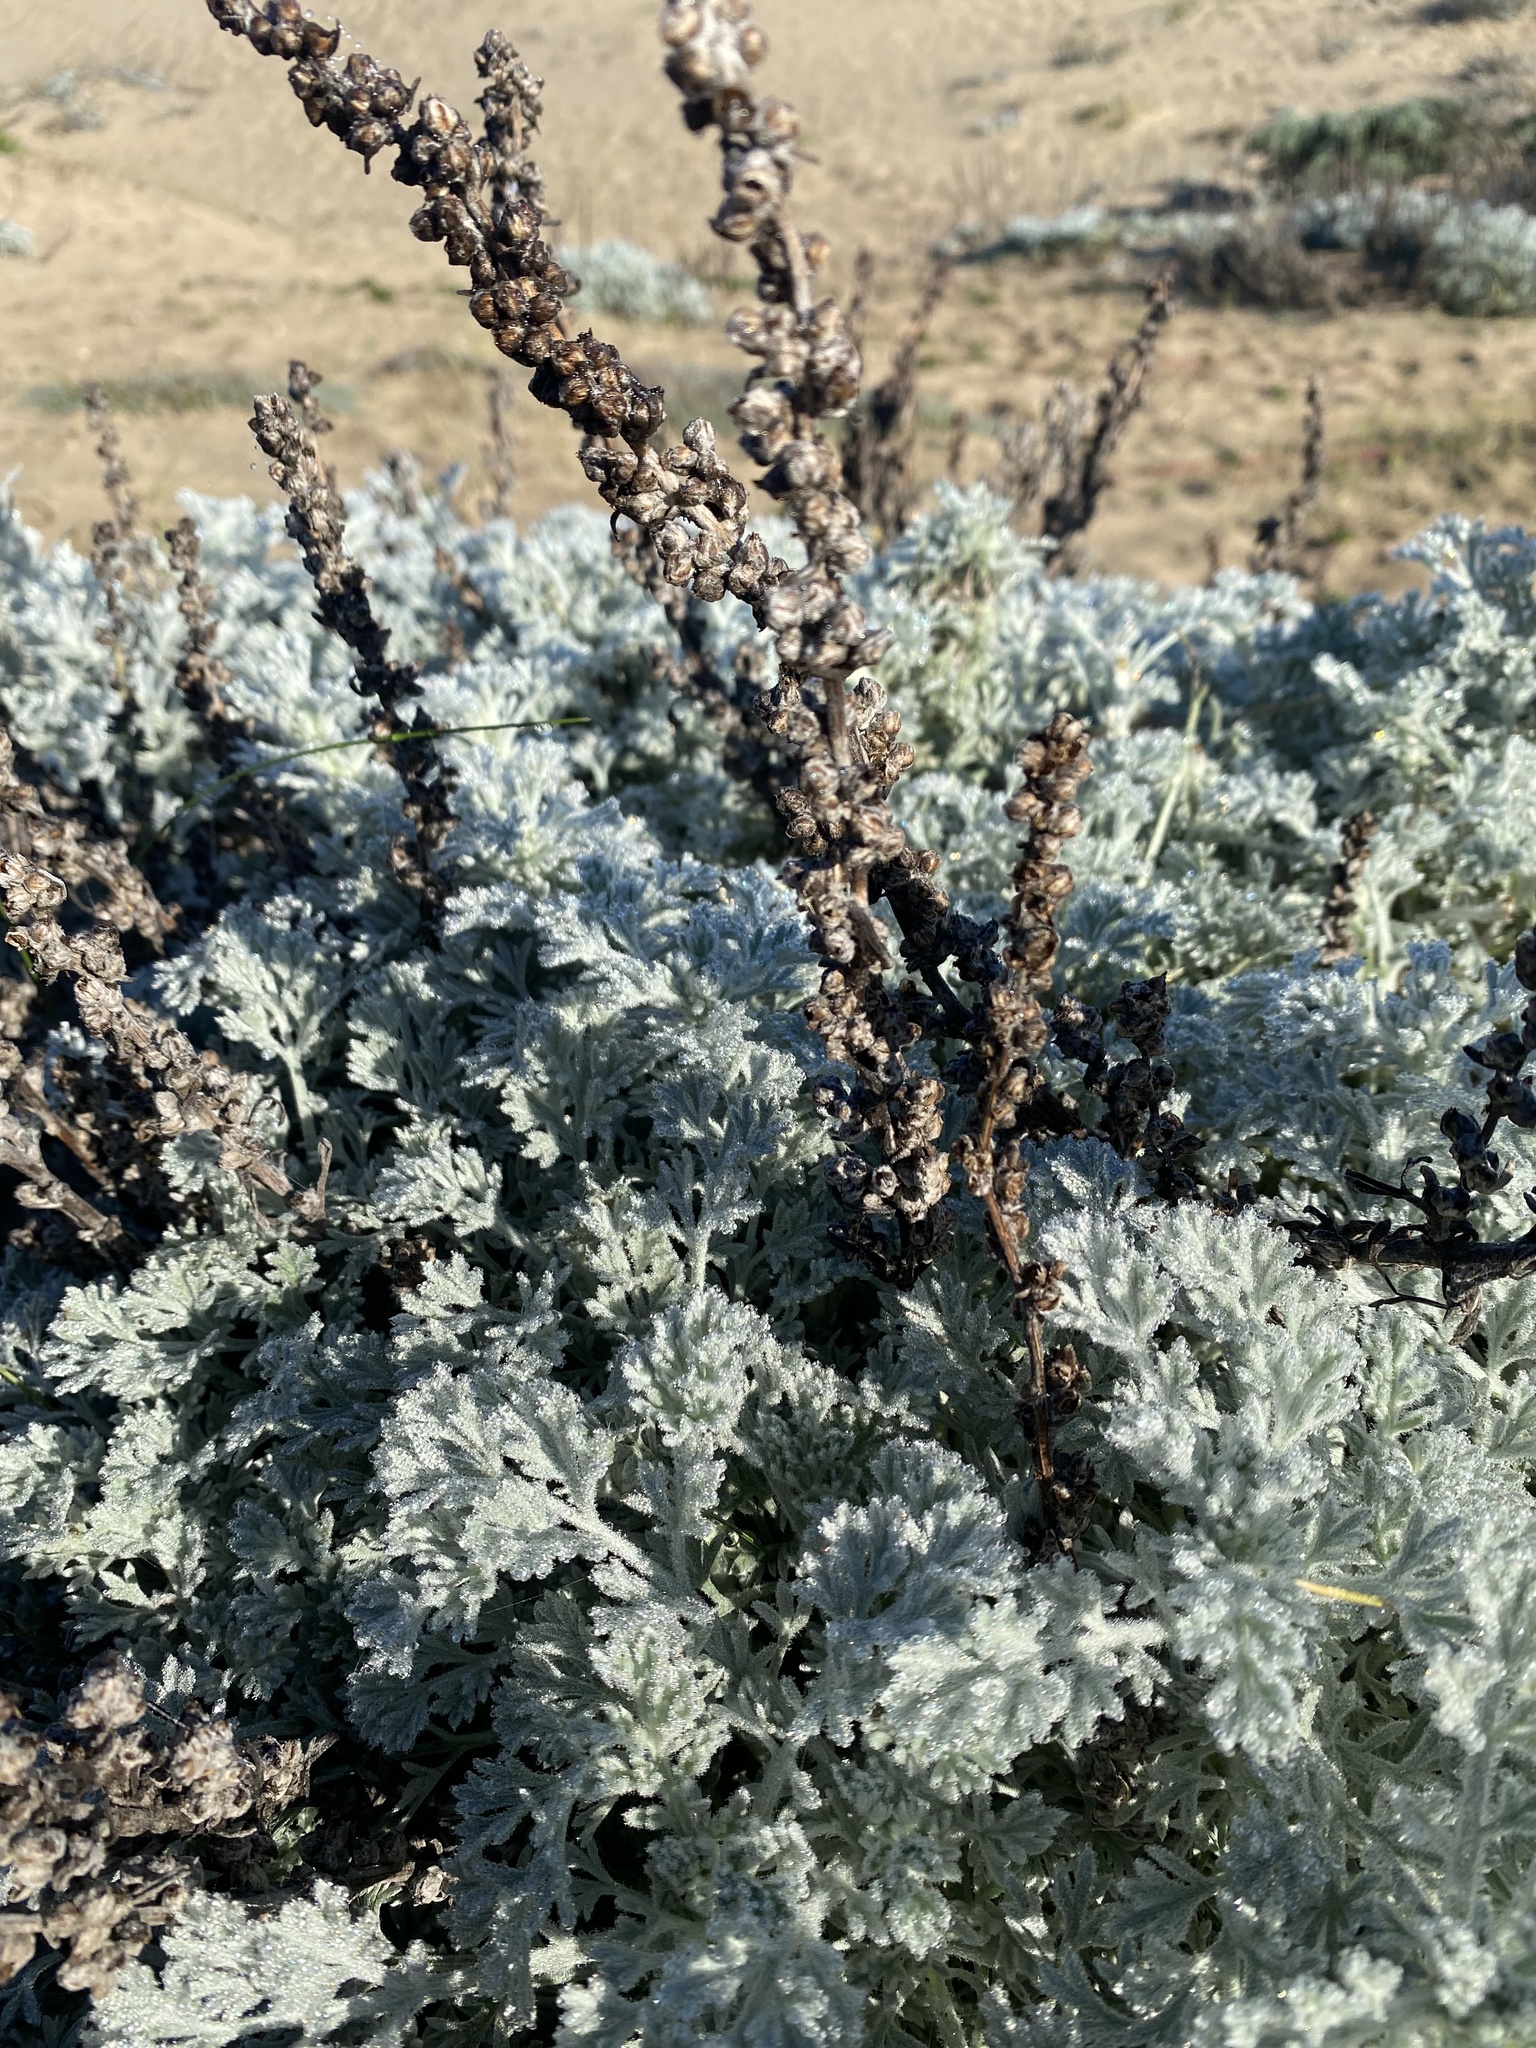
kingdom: Plantae
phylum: Tracheophyta
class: Magnoliopsida
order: Asterales
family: Asteraceae
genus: Artemisia
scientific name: Artemisia pycnocephala
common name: Coastal sagewort
